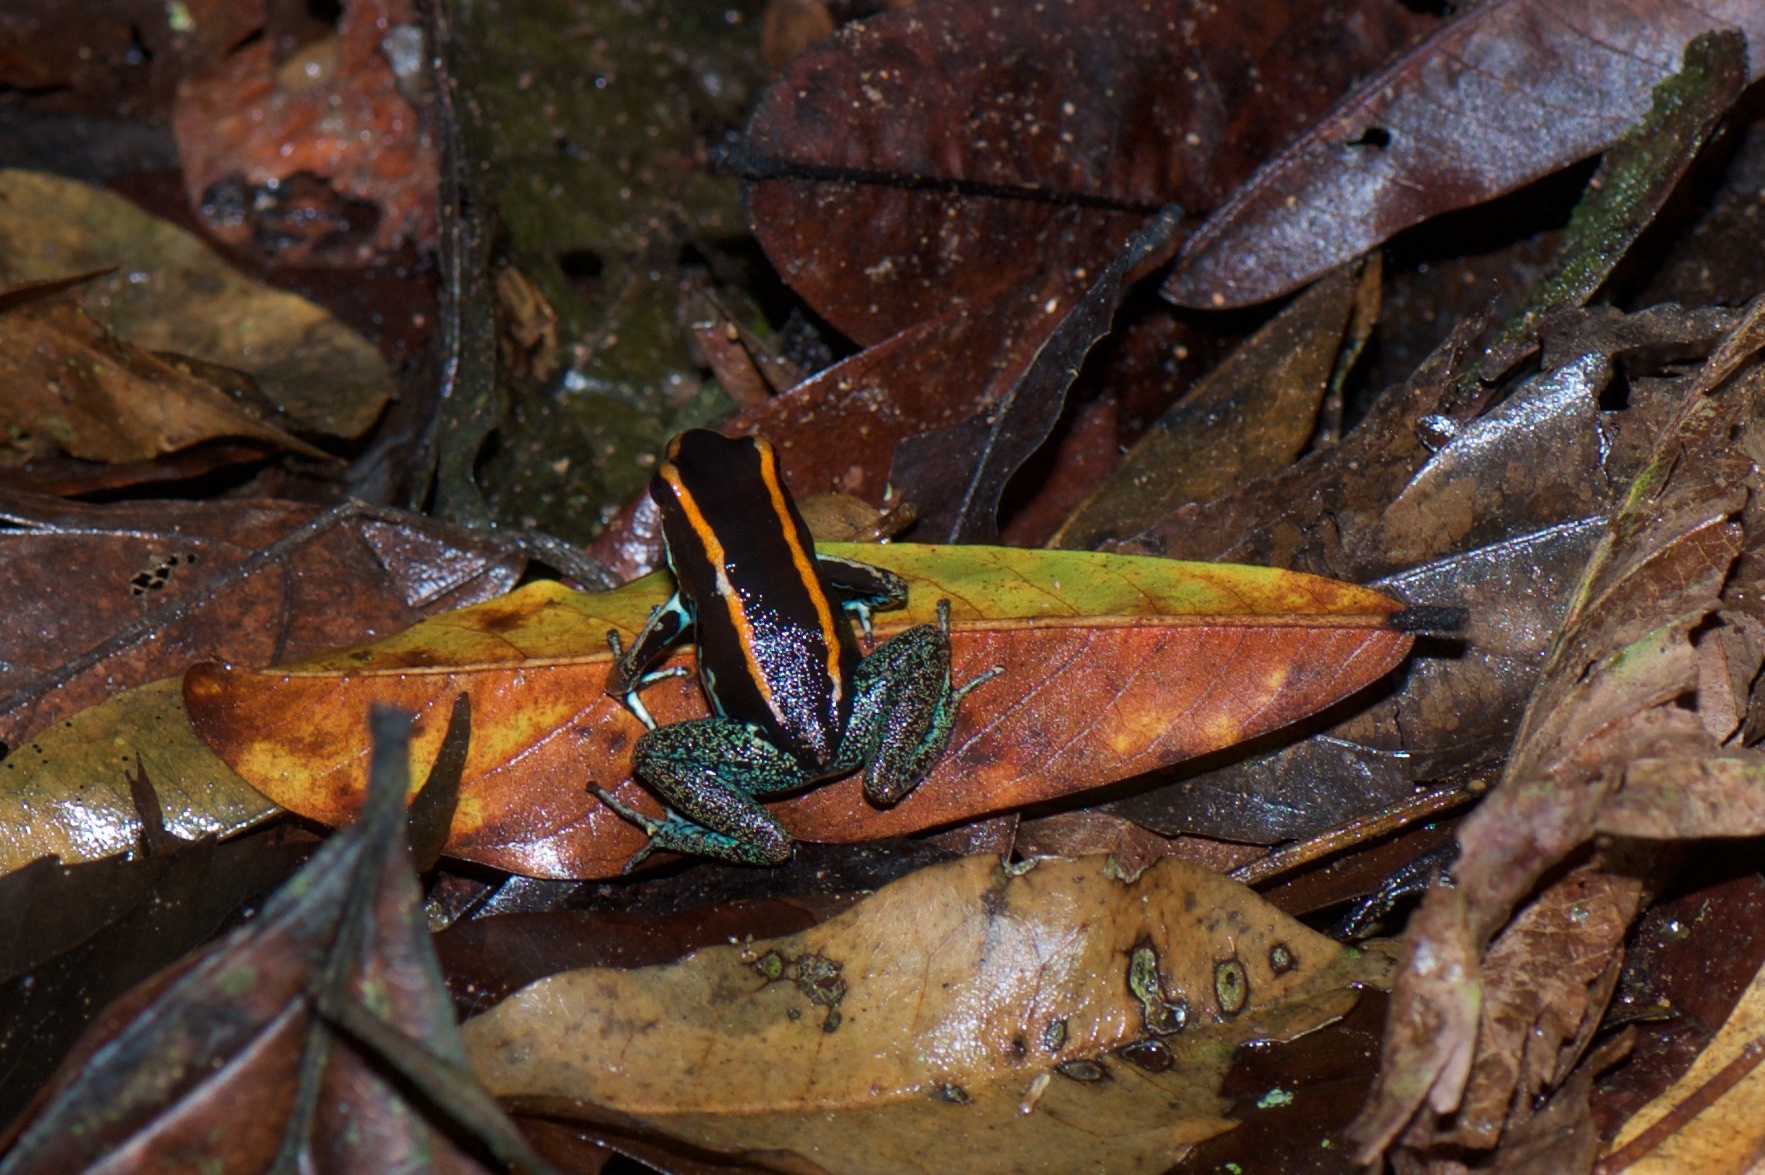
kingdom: Animalia
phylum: Chordata
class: Amphibia
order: Anura
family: Dendrobatidae
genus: Phyllobates
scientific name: Phyllobates vittatus
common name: Golfodulcean poison frog
